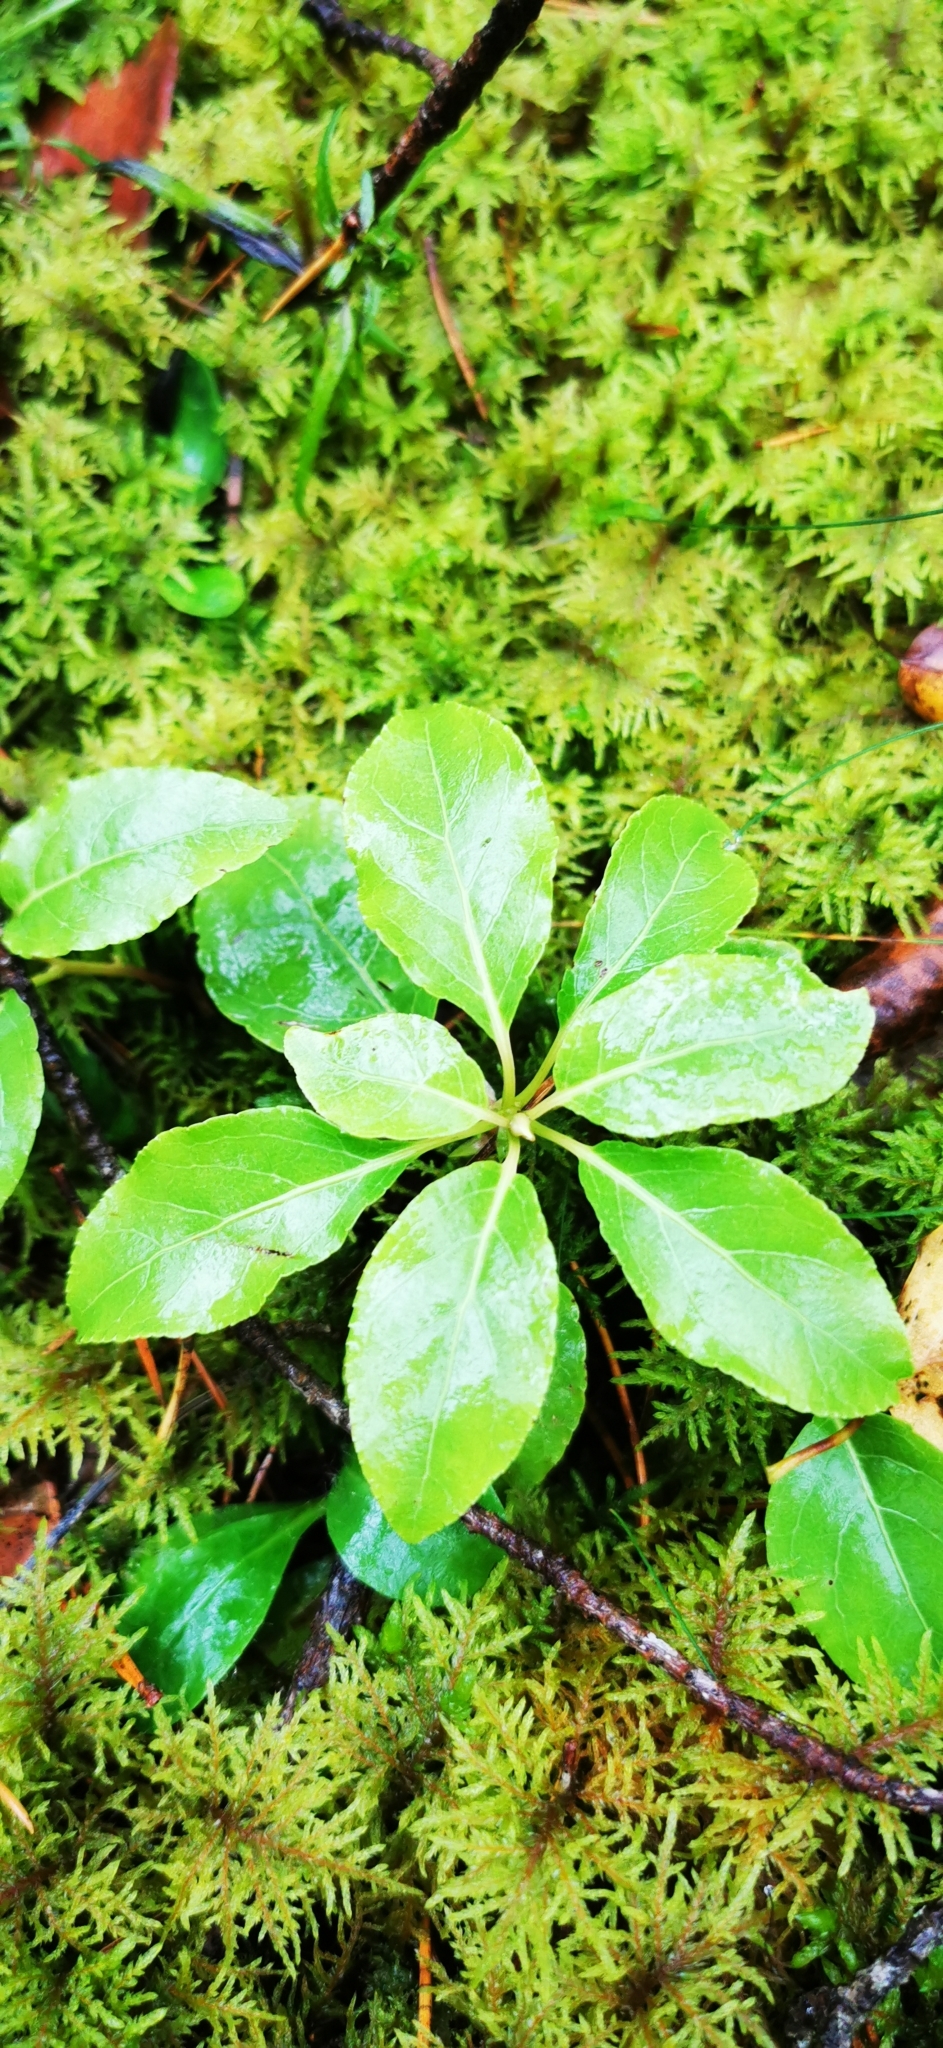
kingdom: Plantae
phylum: Tracheophyta
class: Magnoliopsida
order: Ericales
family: Ericaceae
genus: Orthilia
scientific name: Orthilia secunda
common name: One-sided orthilia
